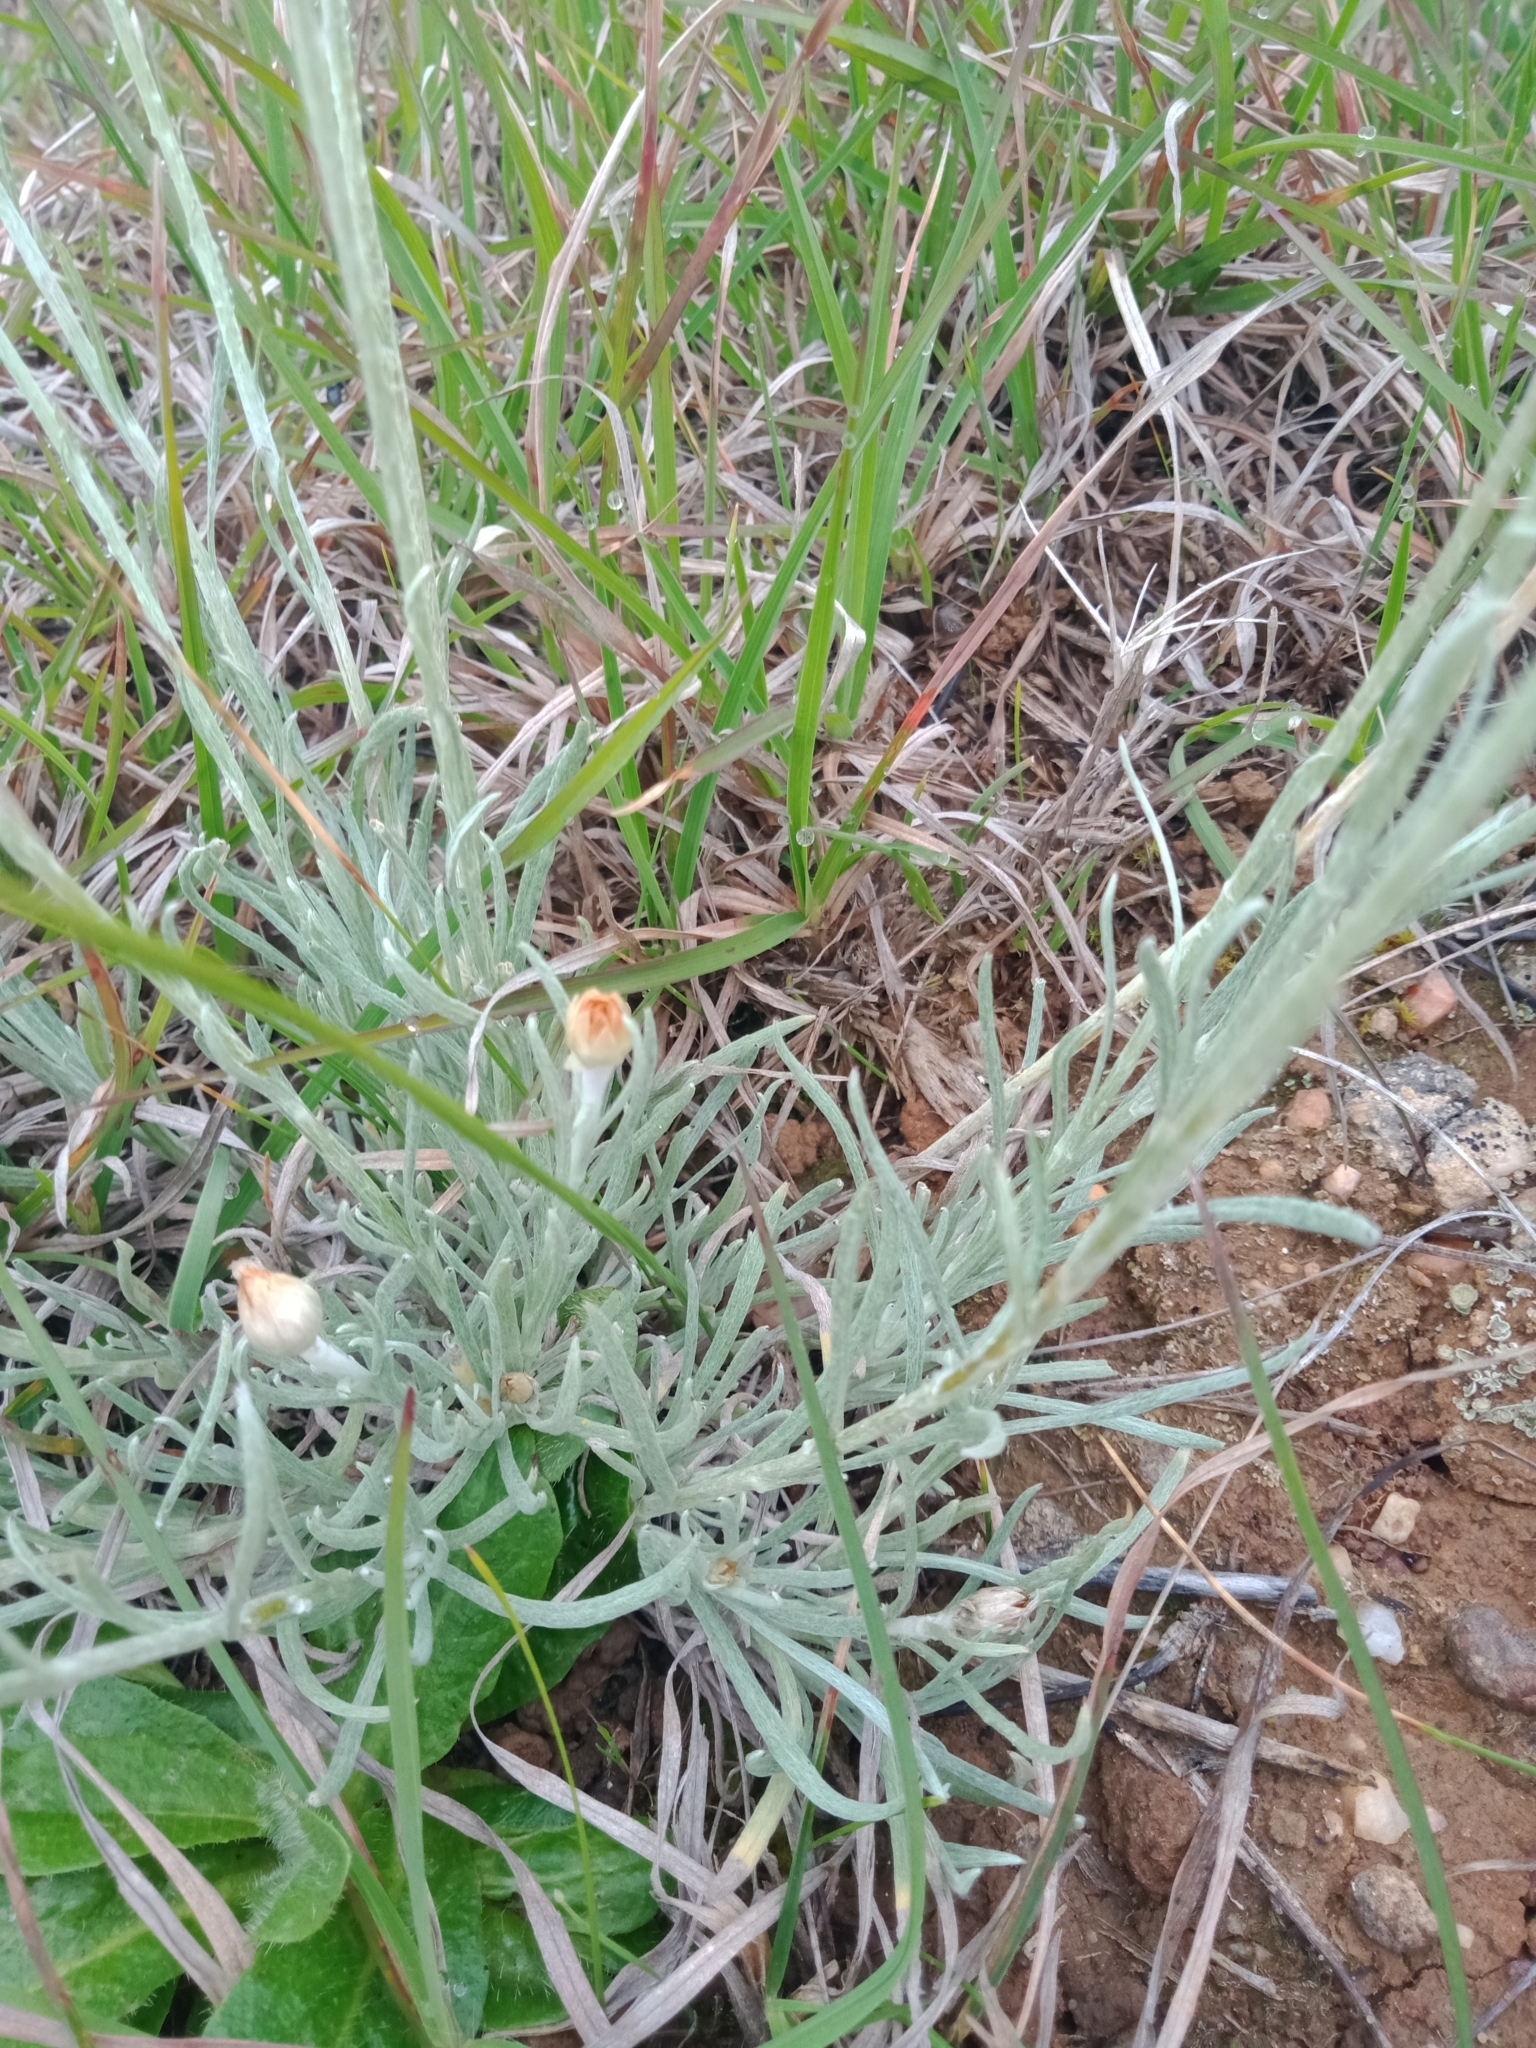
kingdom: Plantae
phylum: Tracheophyta
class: Magnoliopsida
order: Asterales
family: Asteraceae
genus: Leucochrysum
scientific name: Leucochrysum albicans
